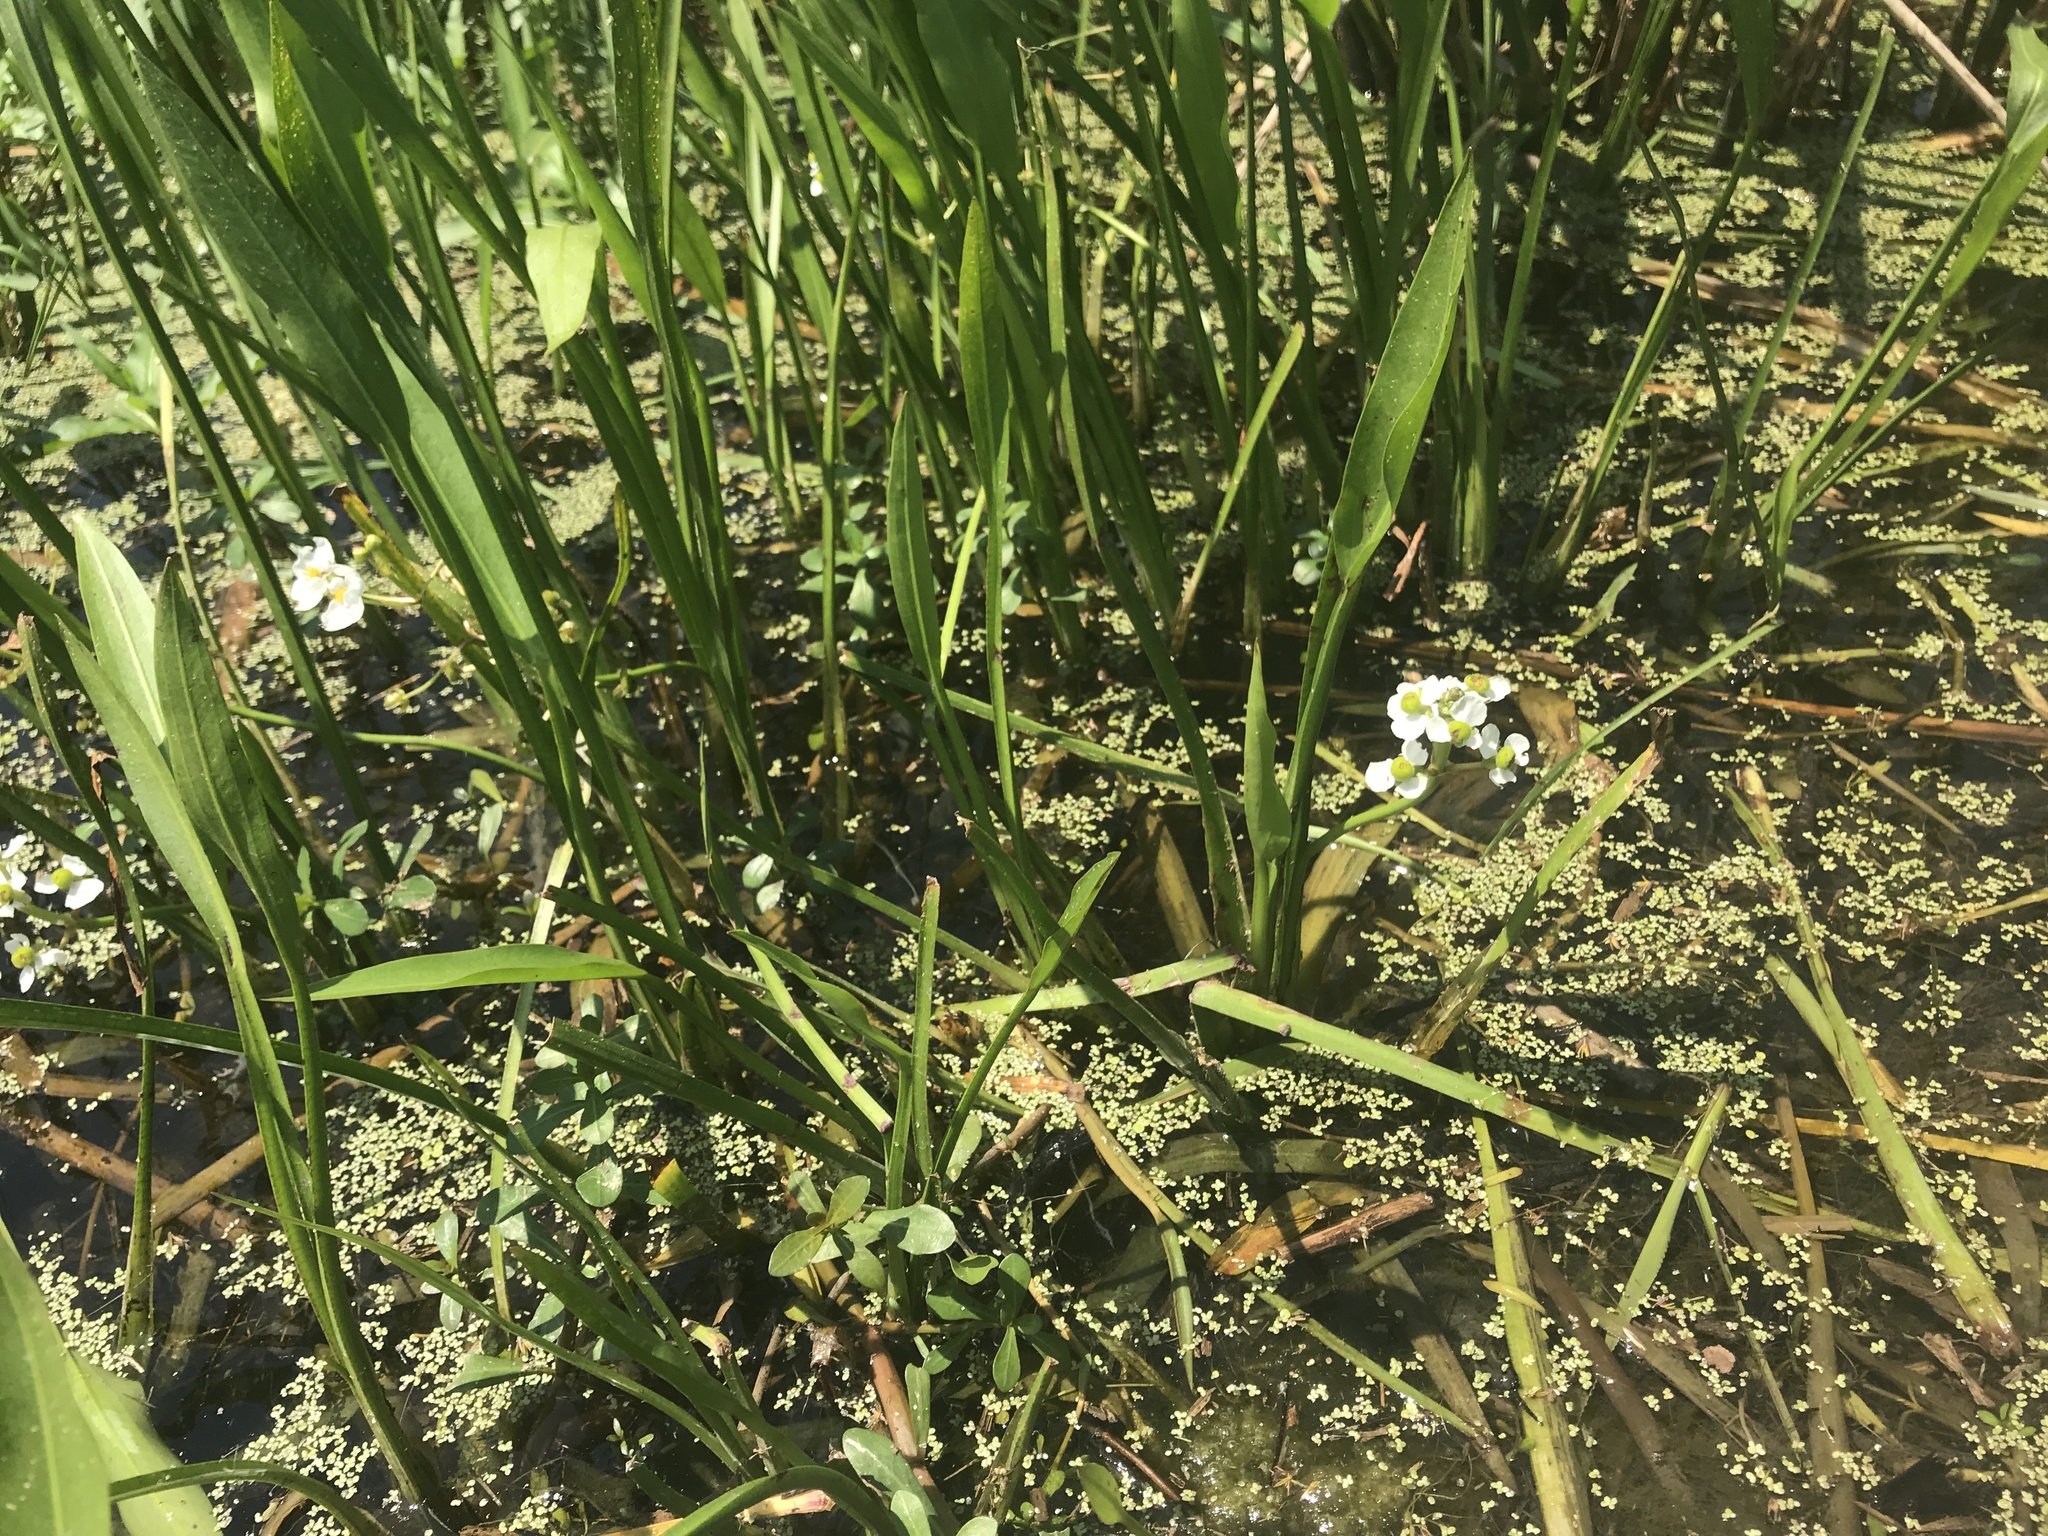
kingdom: Plantae
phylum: Tracheophyta
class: Liliopsida
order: Alismatales
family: Alismataceae
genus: Sagittaria
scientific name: Sagittaria platyphylla
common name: Broad-leaf arrowhead
